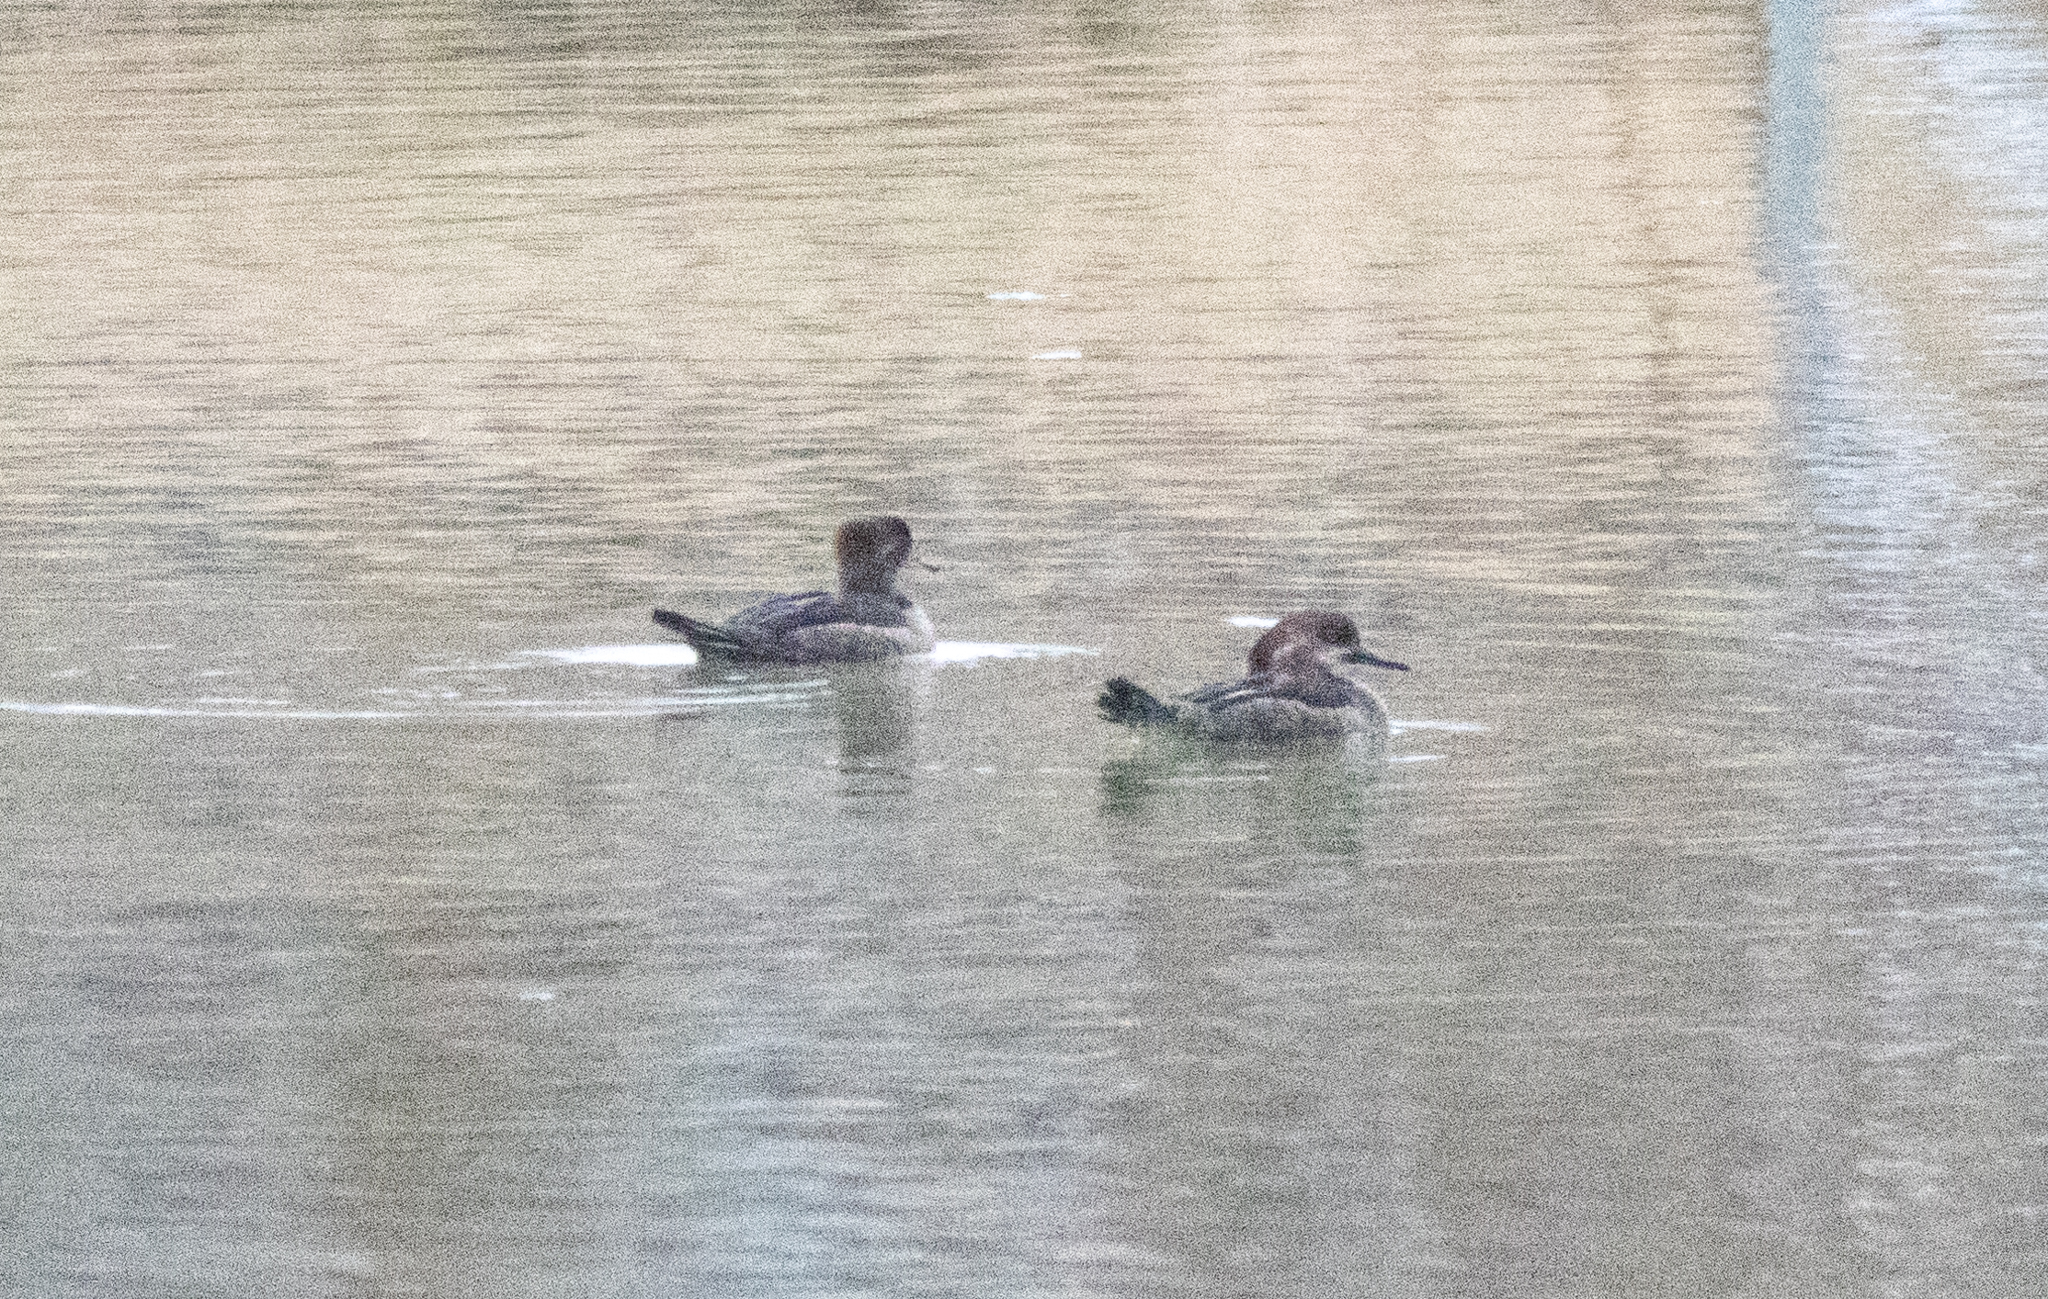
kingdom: Animalia
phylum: Chordata
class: Aves
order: Anseriformes
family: Anatidae
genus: Lophodytes
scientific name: Lophodytes cucullatus
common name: Hooded merganser
